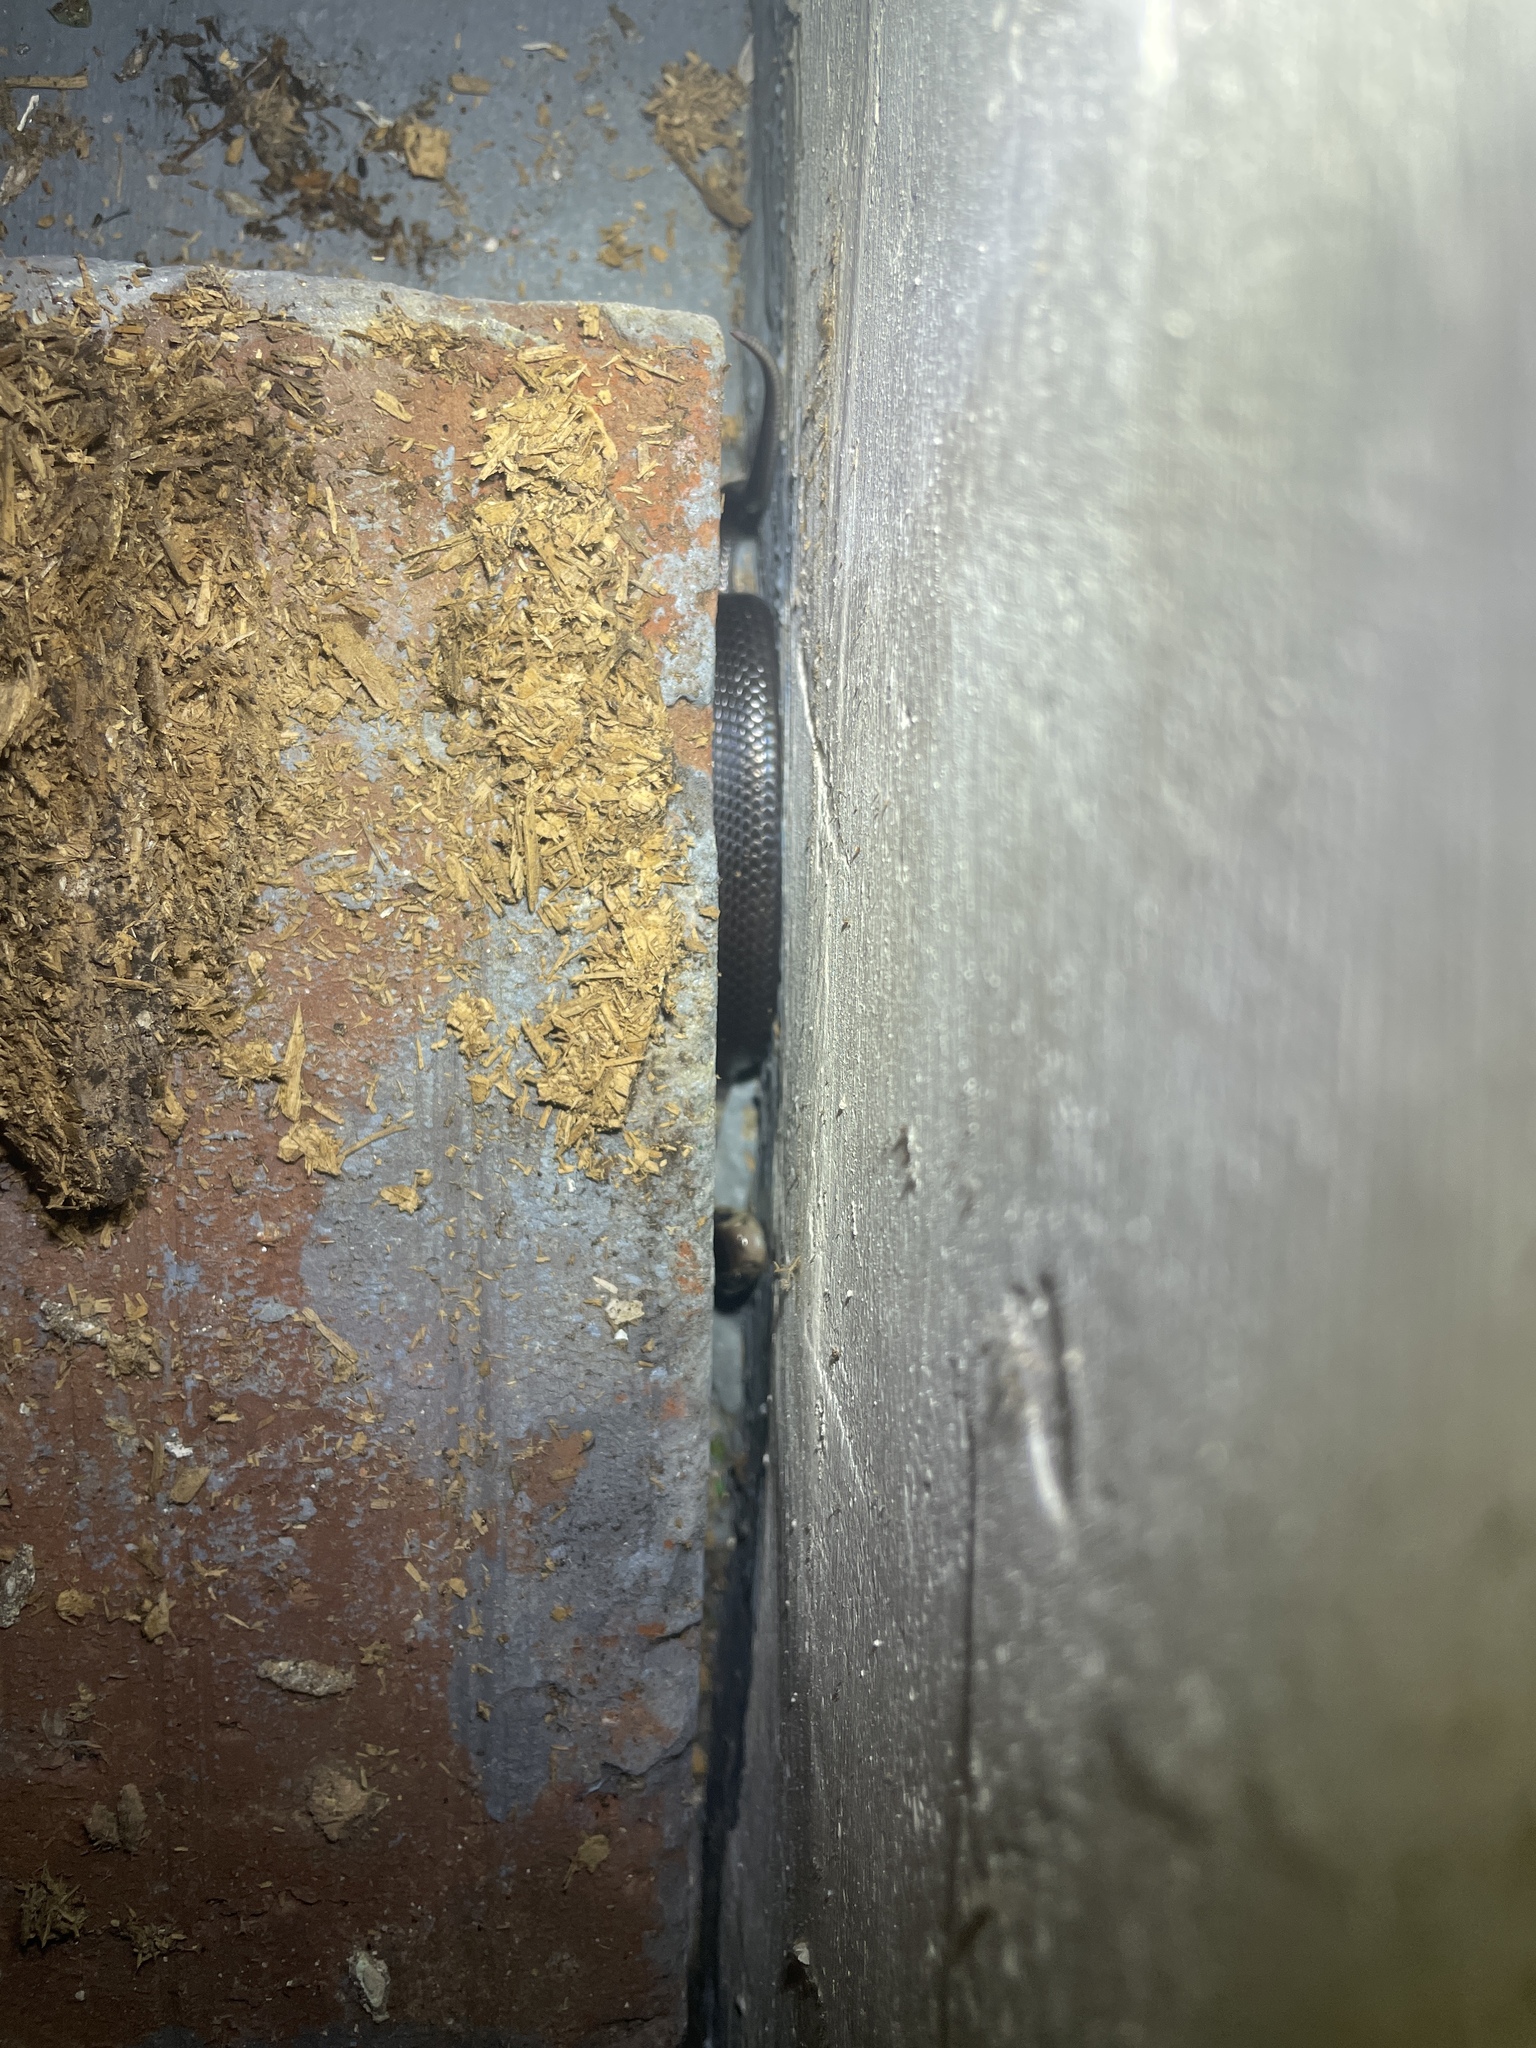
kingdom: Animalia
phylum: Chordata
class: Squamata
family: Elapidae
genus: Naja
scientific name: Naja atra
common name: Chinese cobra
